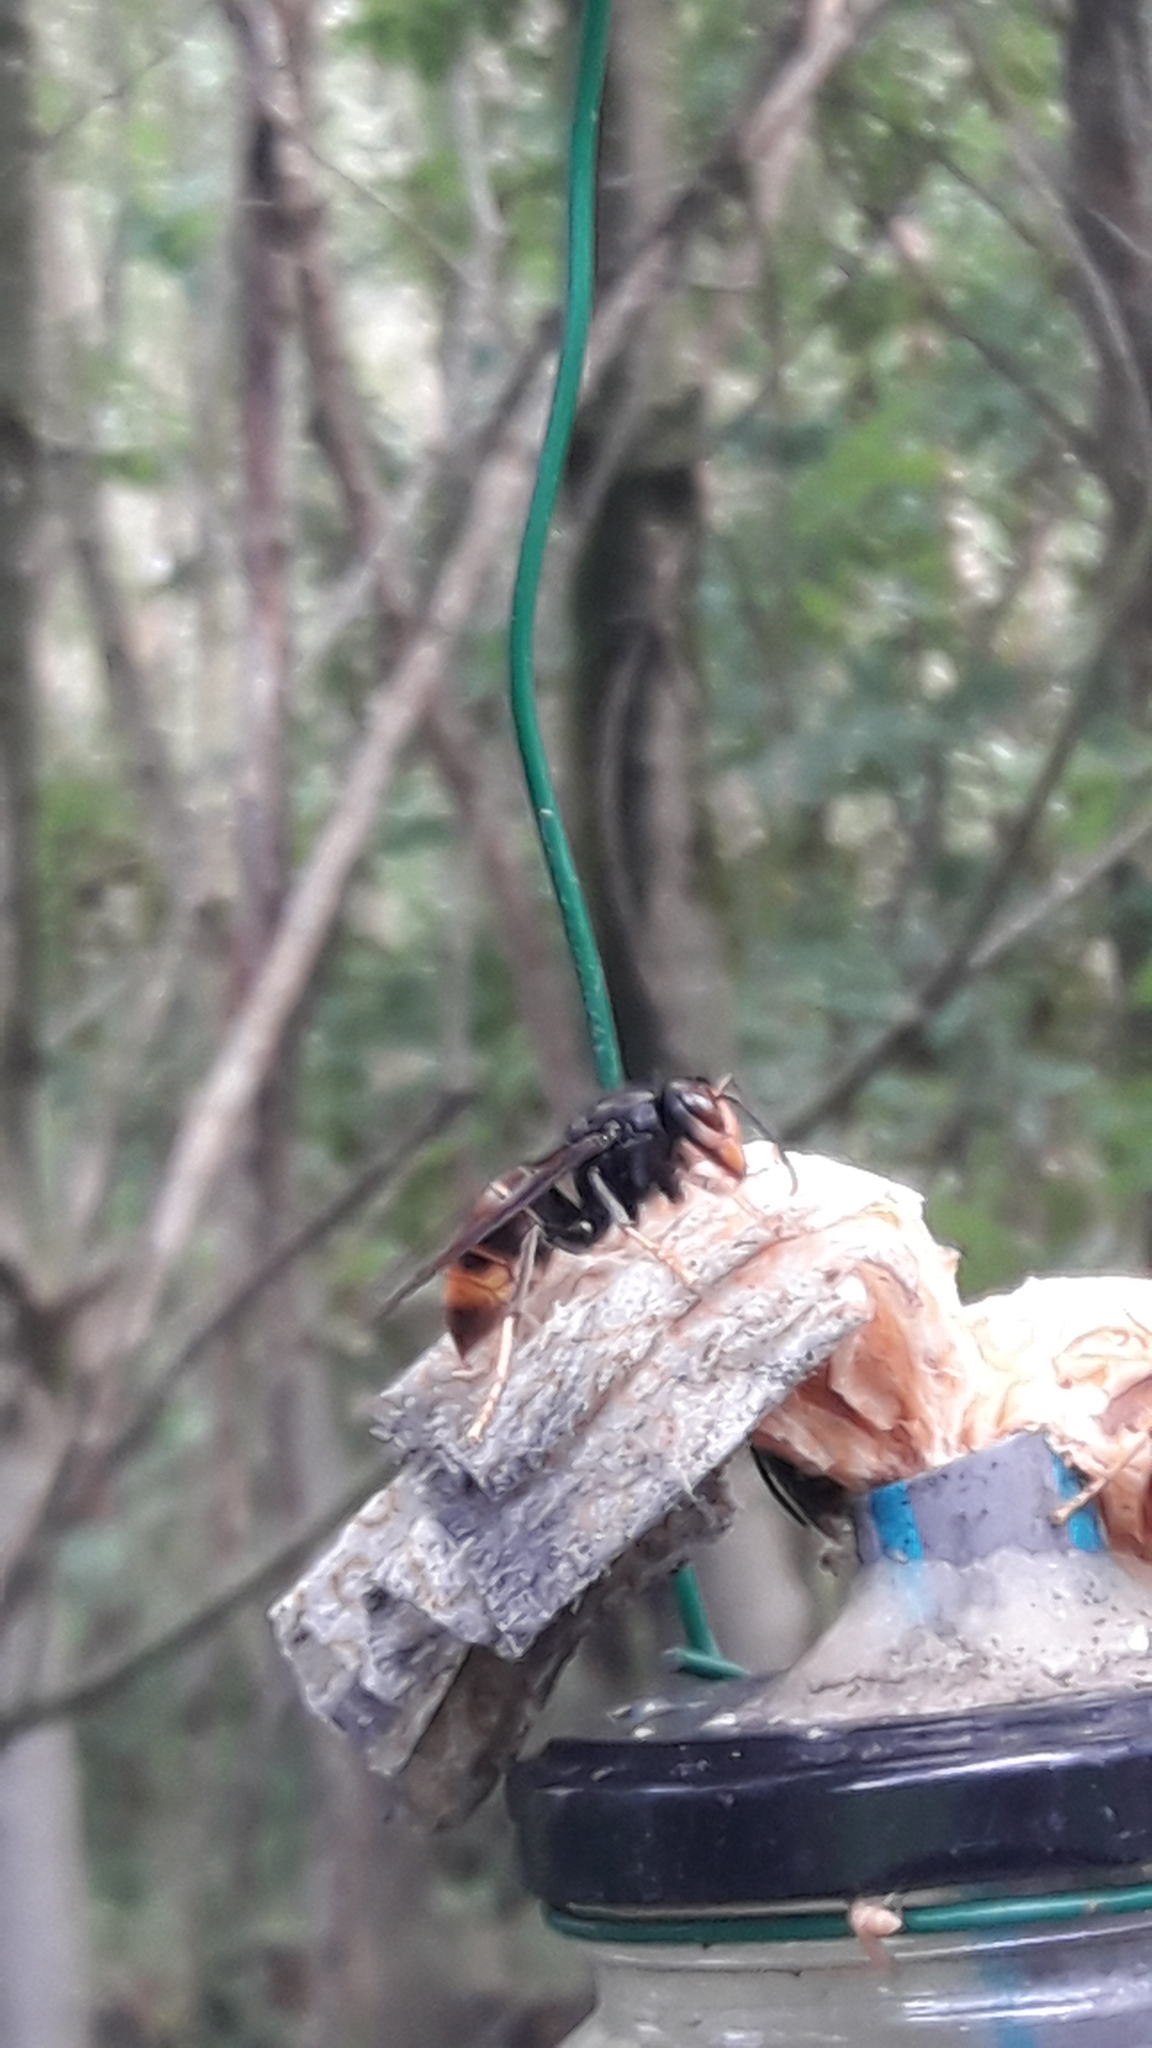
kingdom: Animalia
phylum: Arthropoda
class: Insecta
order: Hymenoptera
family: Vespidae
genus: Vespa
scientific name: Vespa velutina
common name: Asian hornet
